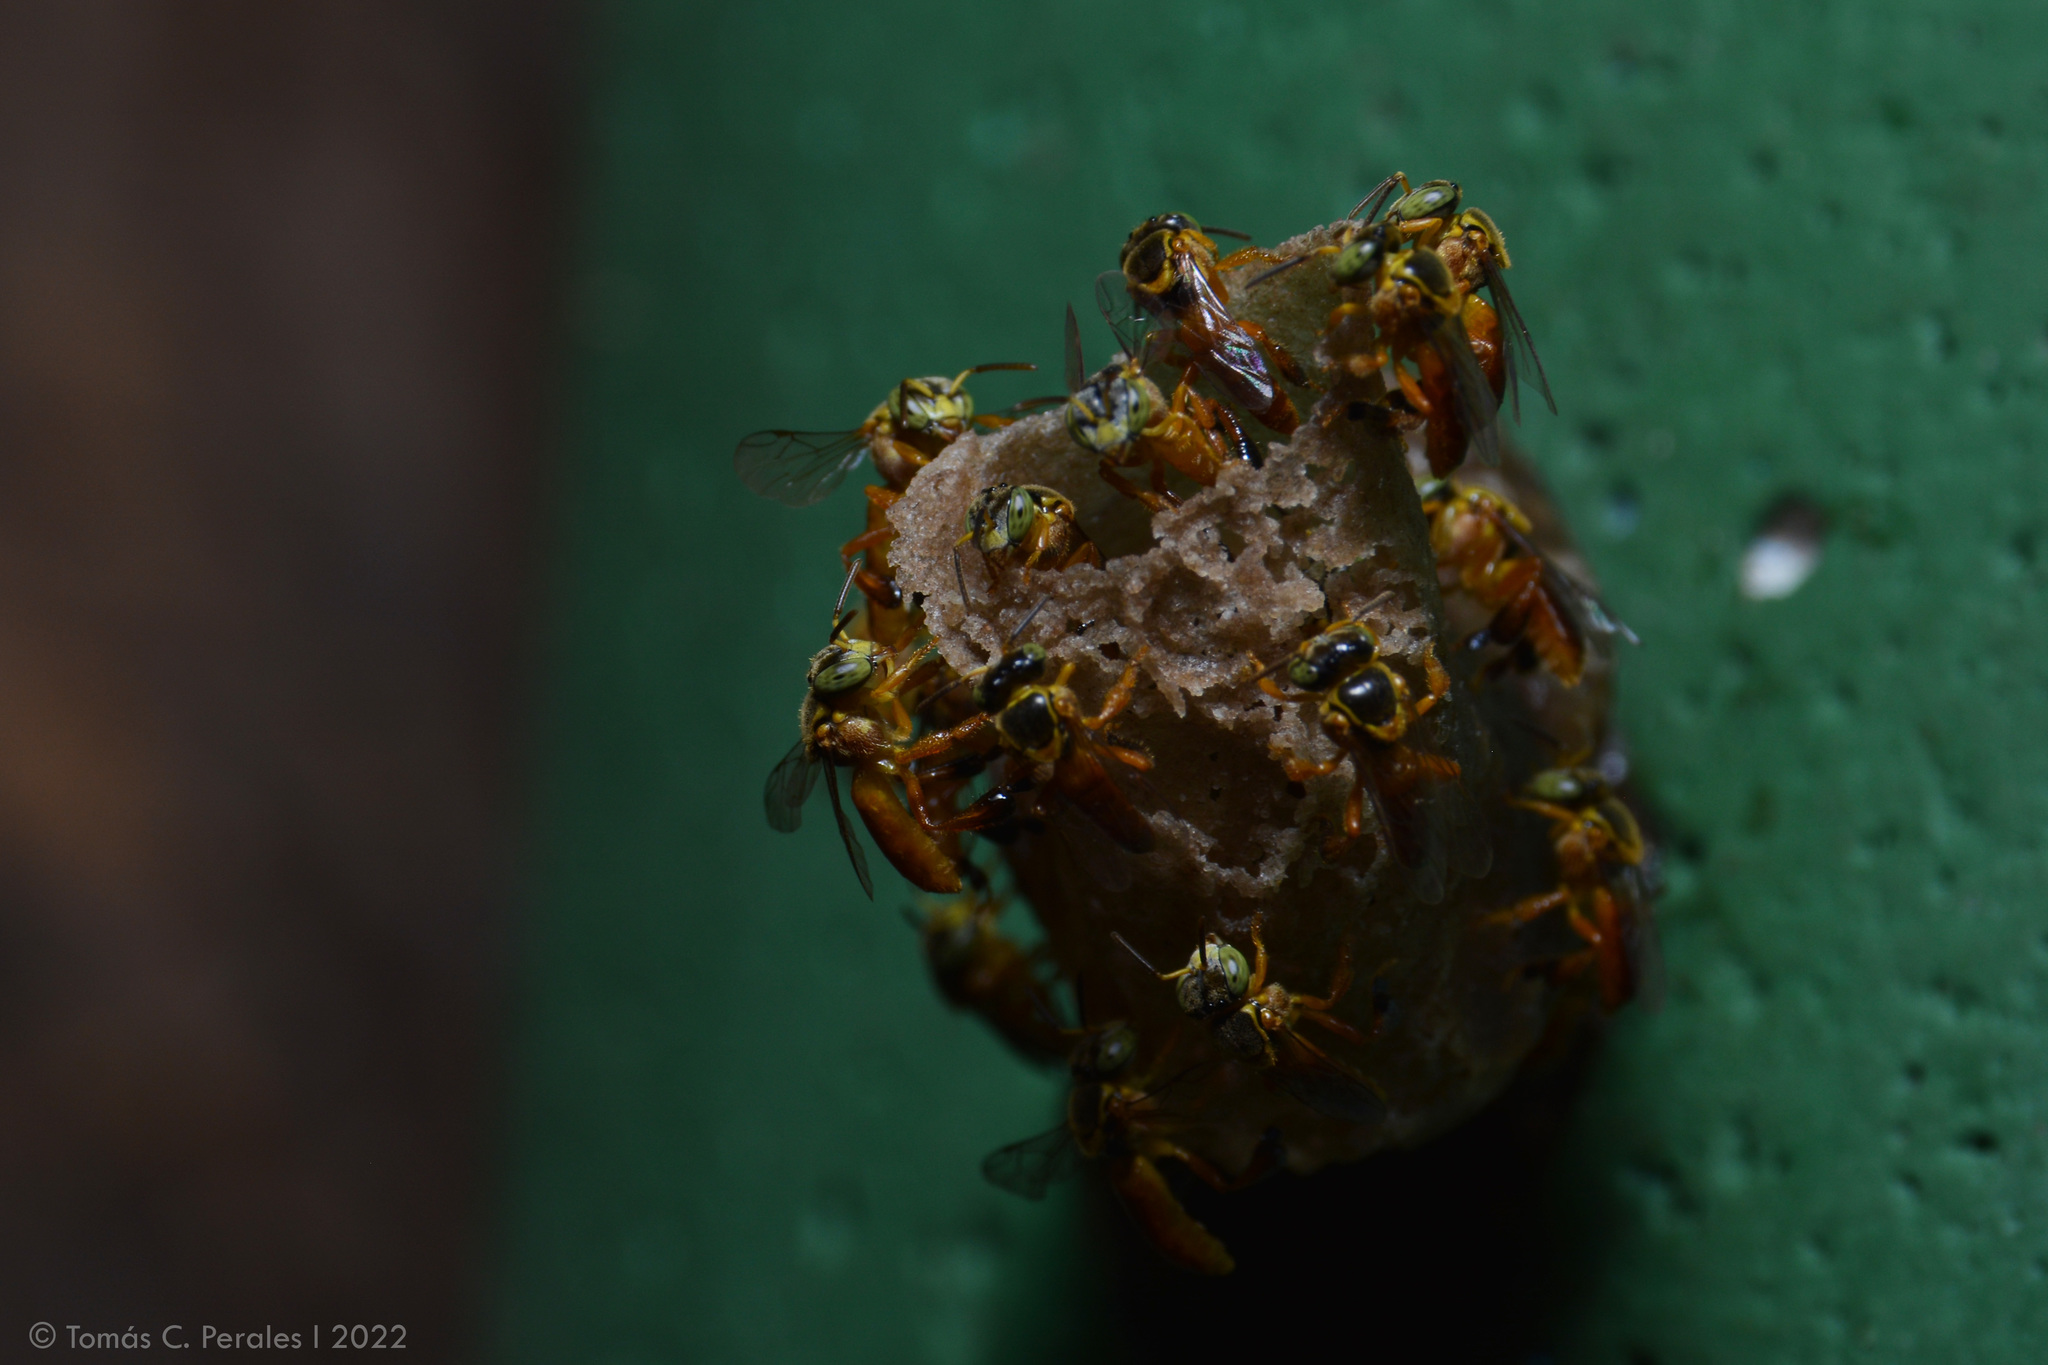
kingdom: Animalia
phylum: Arthropoda
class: Insecta
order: Hymenoptera
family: Apidae
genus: Tetragonisca
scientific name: Tetragonisca fiebrigi
